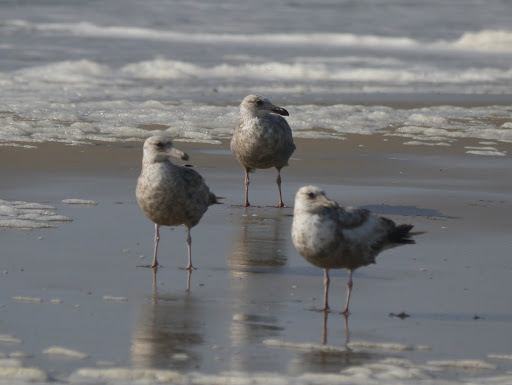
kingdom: Animalia
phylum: Chordata
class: Aves
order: Charadriiformes
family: Laridae
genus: Larus
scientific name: Larus argentatus
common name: Herring gull
